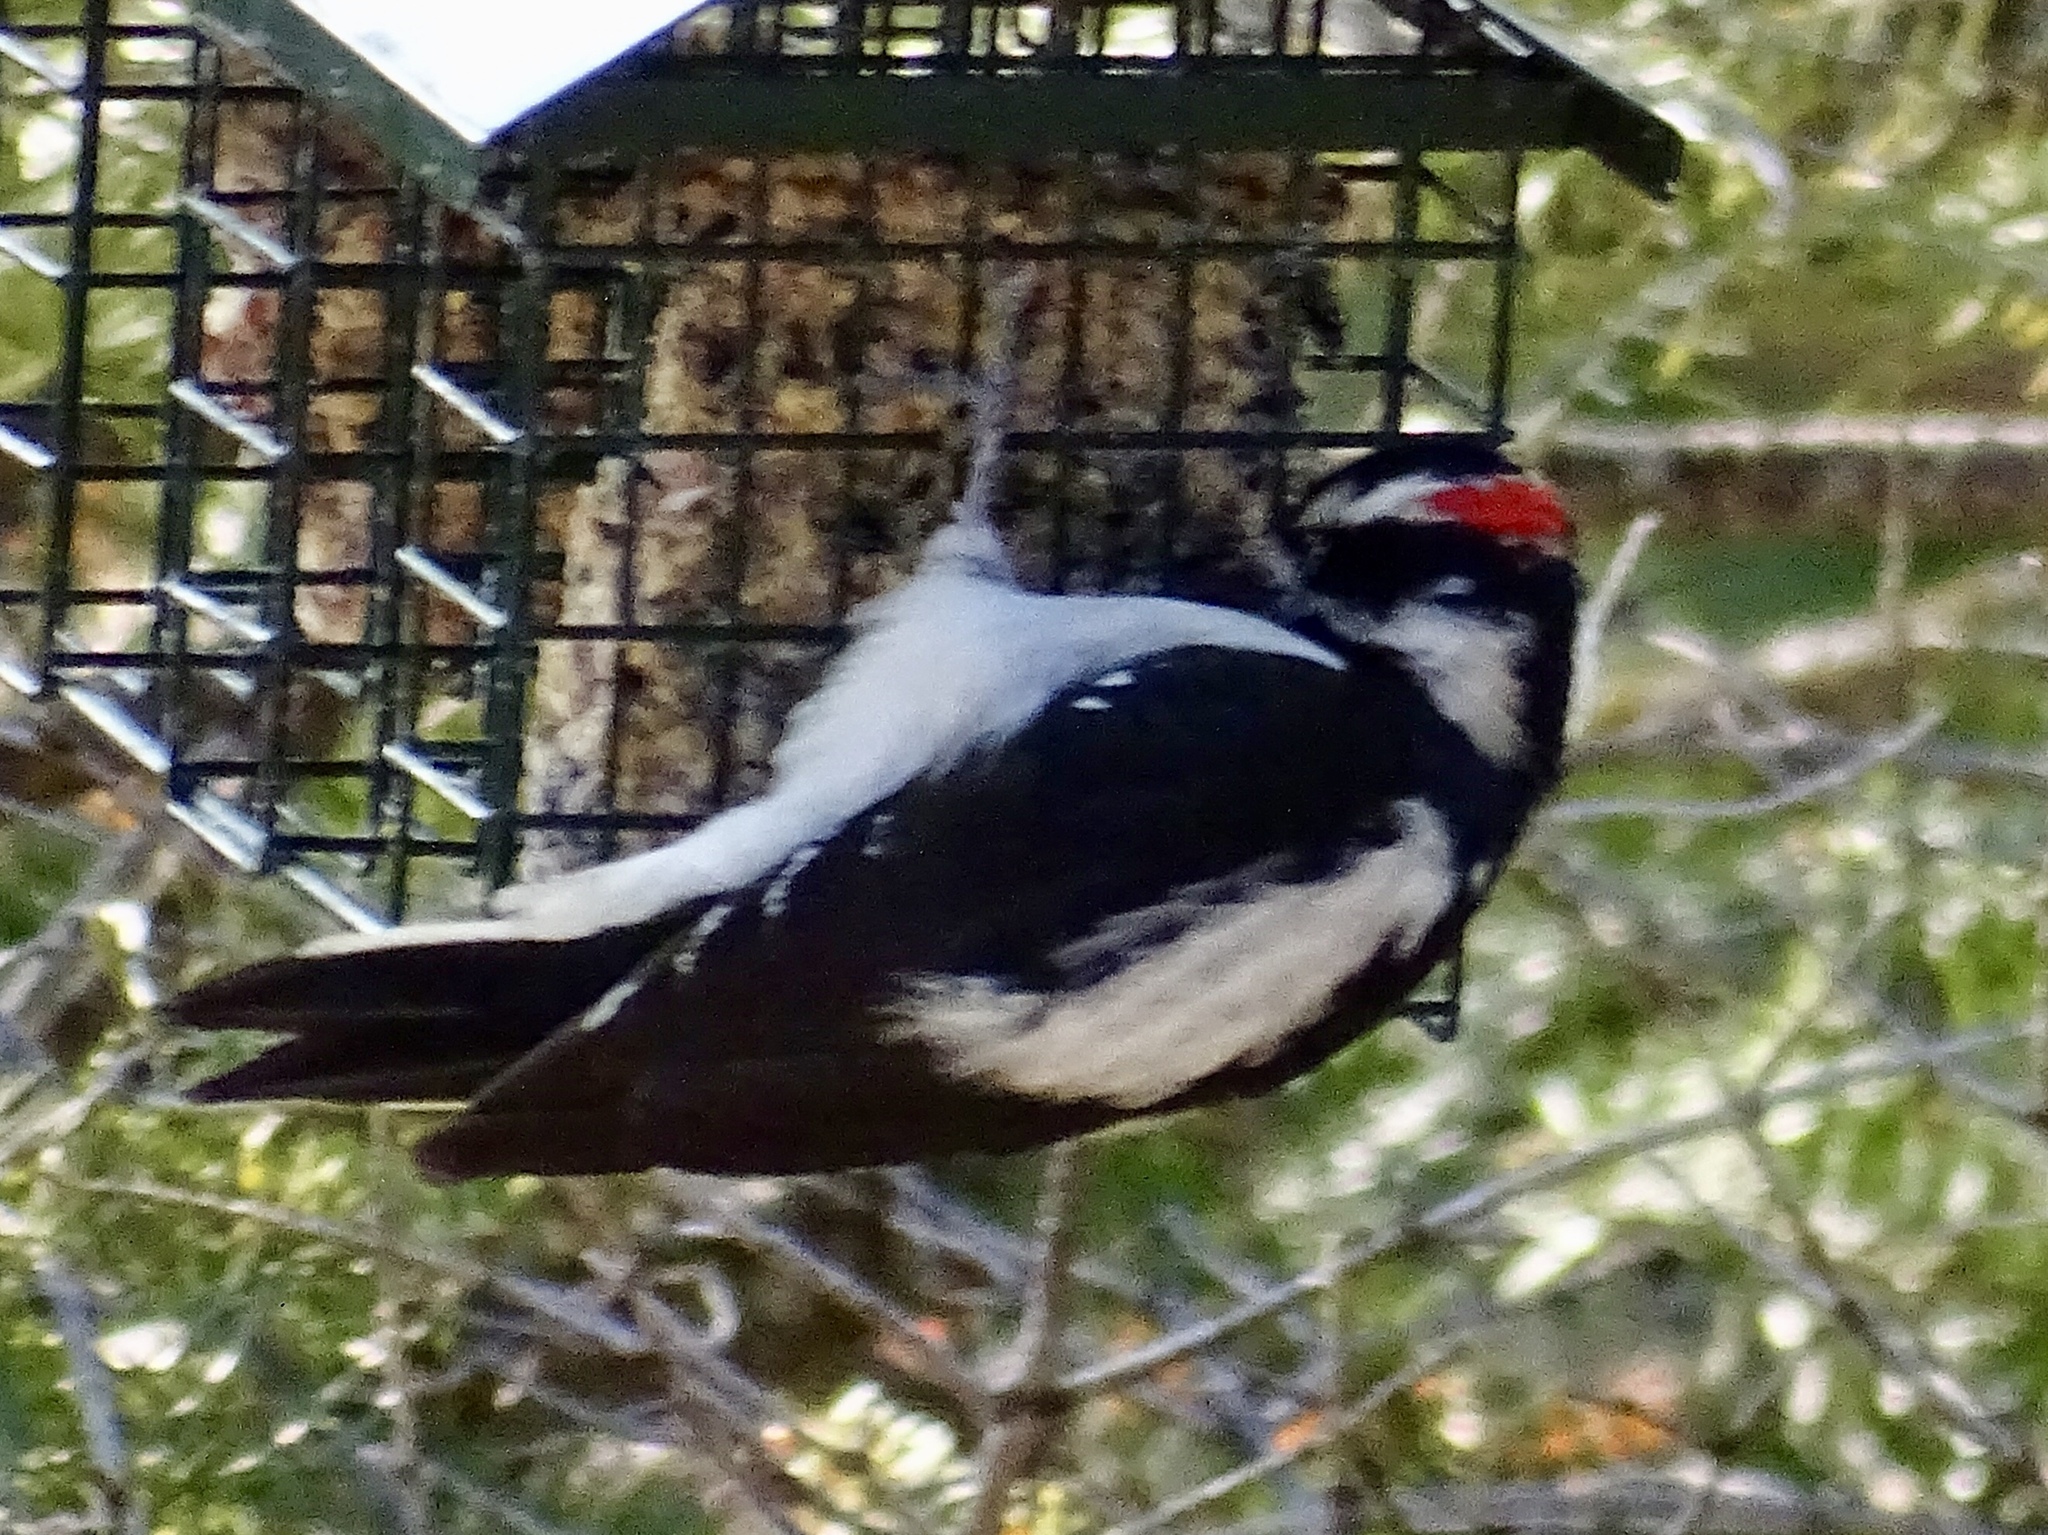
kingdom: Animalia
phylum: Chordata
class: Aves
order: Piciformes
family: Picidae
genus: Leuconotopicus
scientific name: Leuconotopicus villosus
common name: Hairy woodpecker
